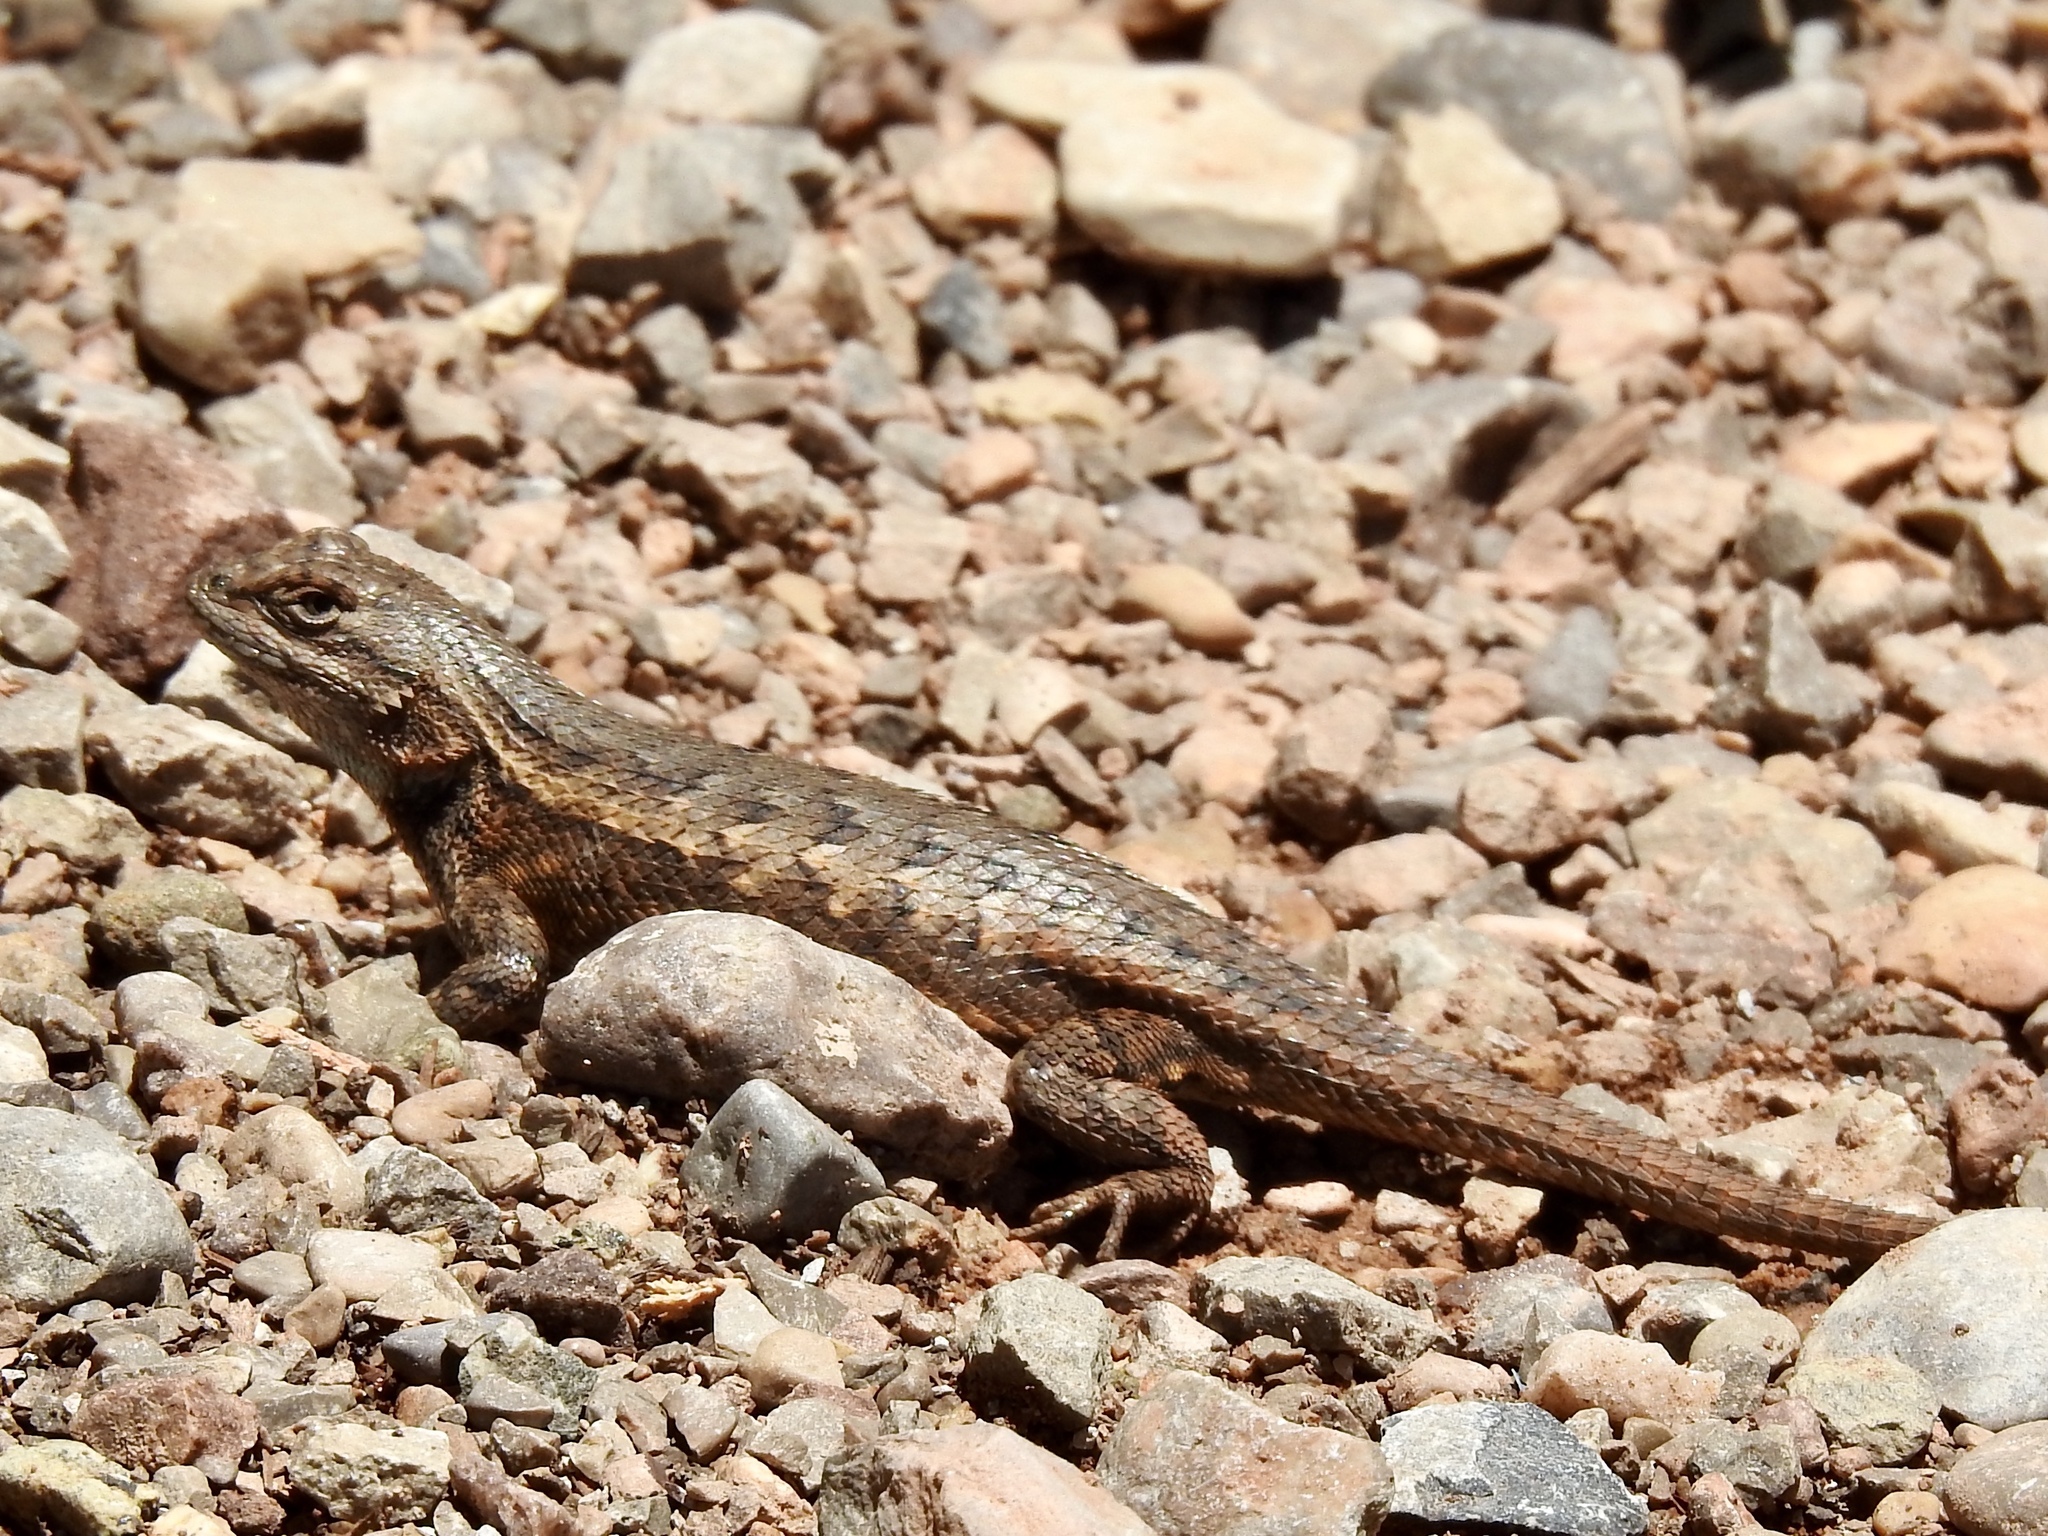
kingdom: Animalia
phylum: Chordata
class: Squamata
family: Phrynosomatidae
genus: Sceloporus
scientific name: Sceloporus cowlesi
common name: White sands prairie lizard
